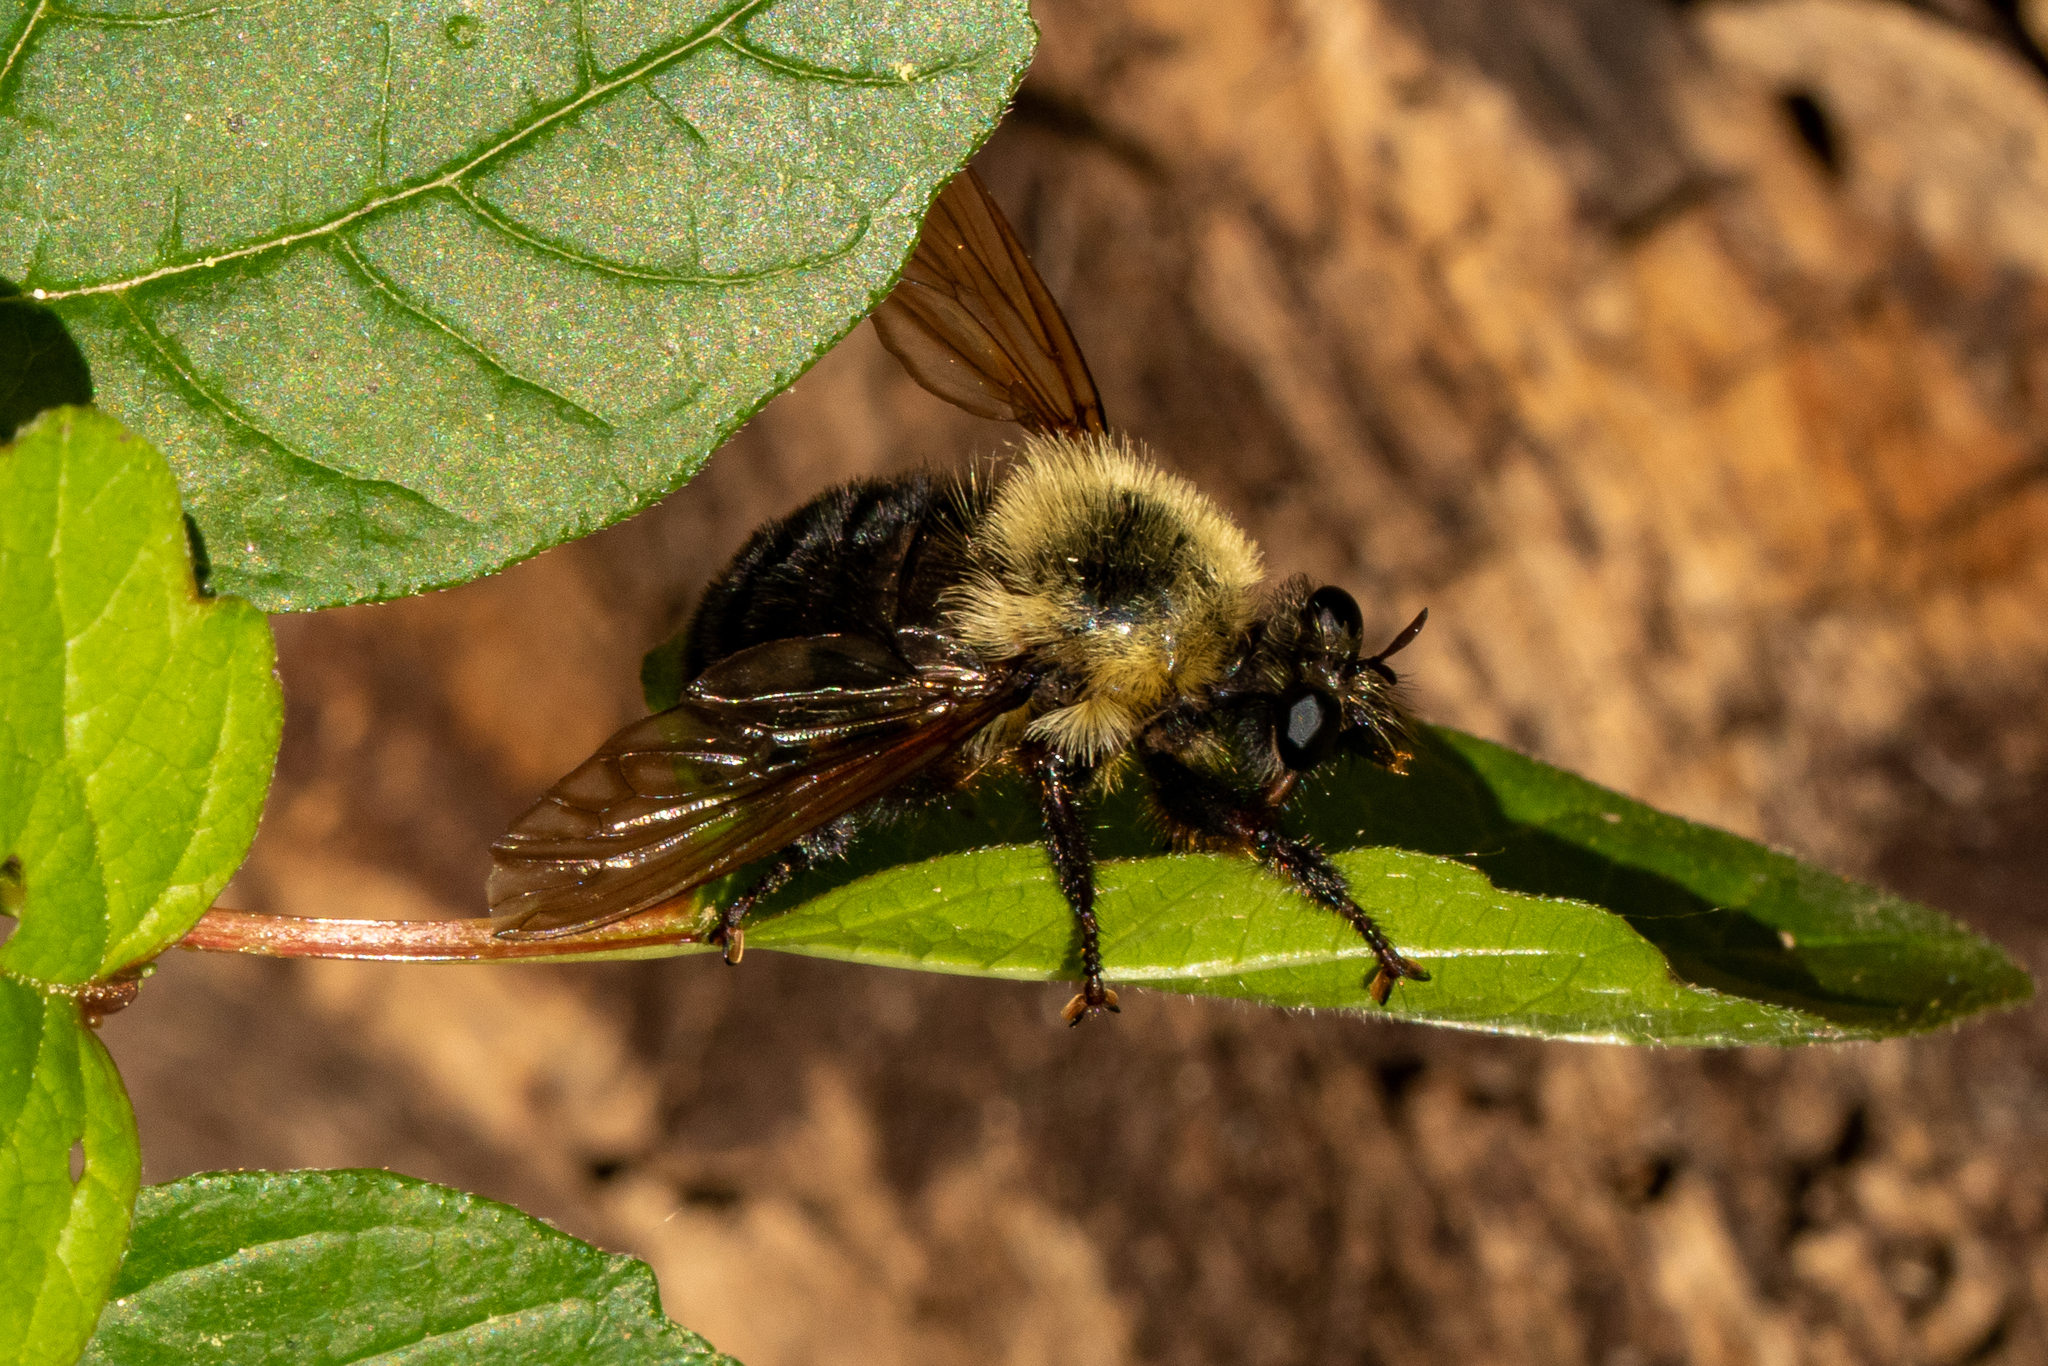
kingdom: Animalia
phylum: Arthropoda
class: Insecta
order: Diptera
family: Asilidae
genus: Laphria
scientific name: Laphria thoracica
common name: Bumble bee mimic robber fly
